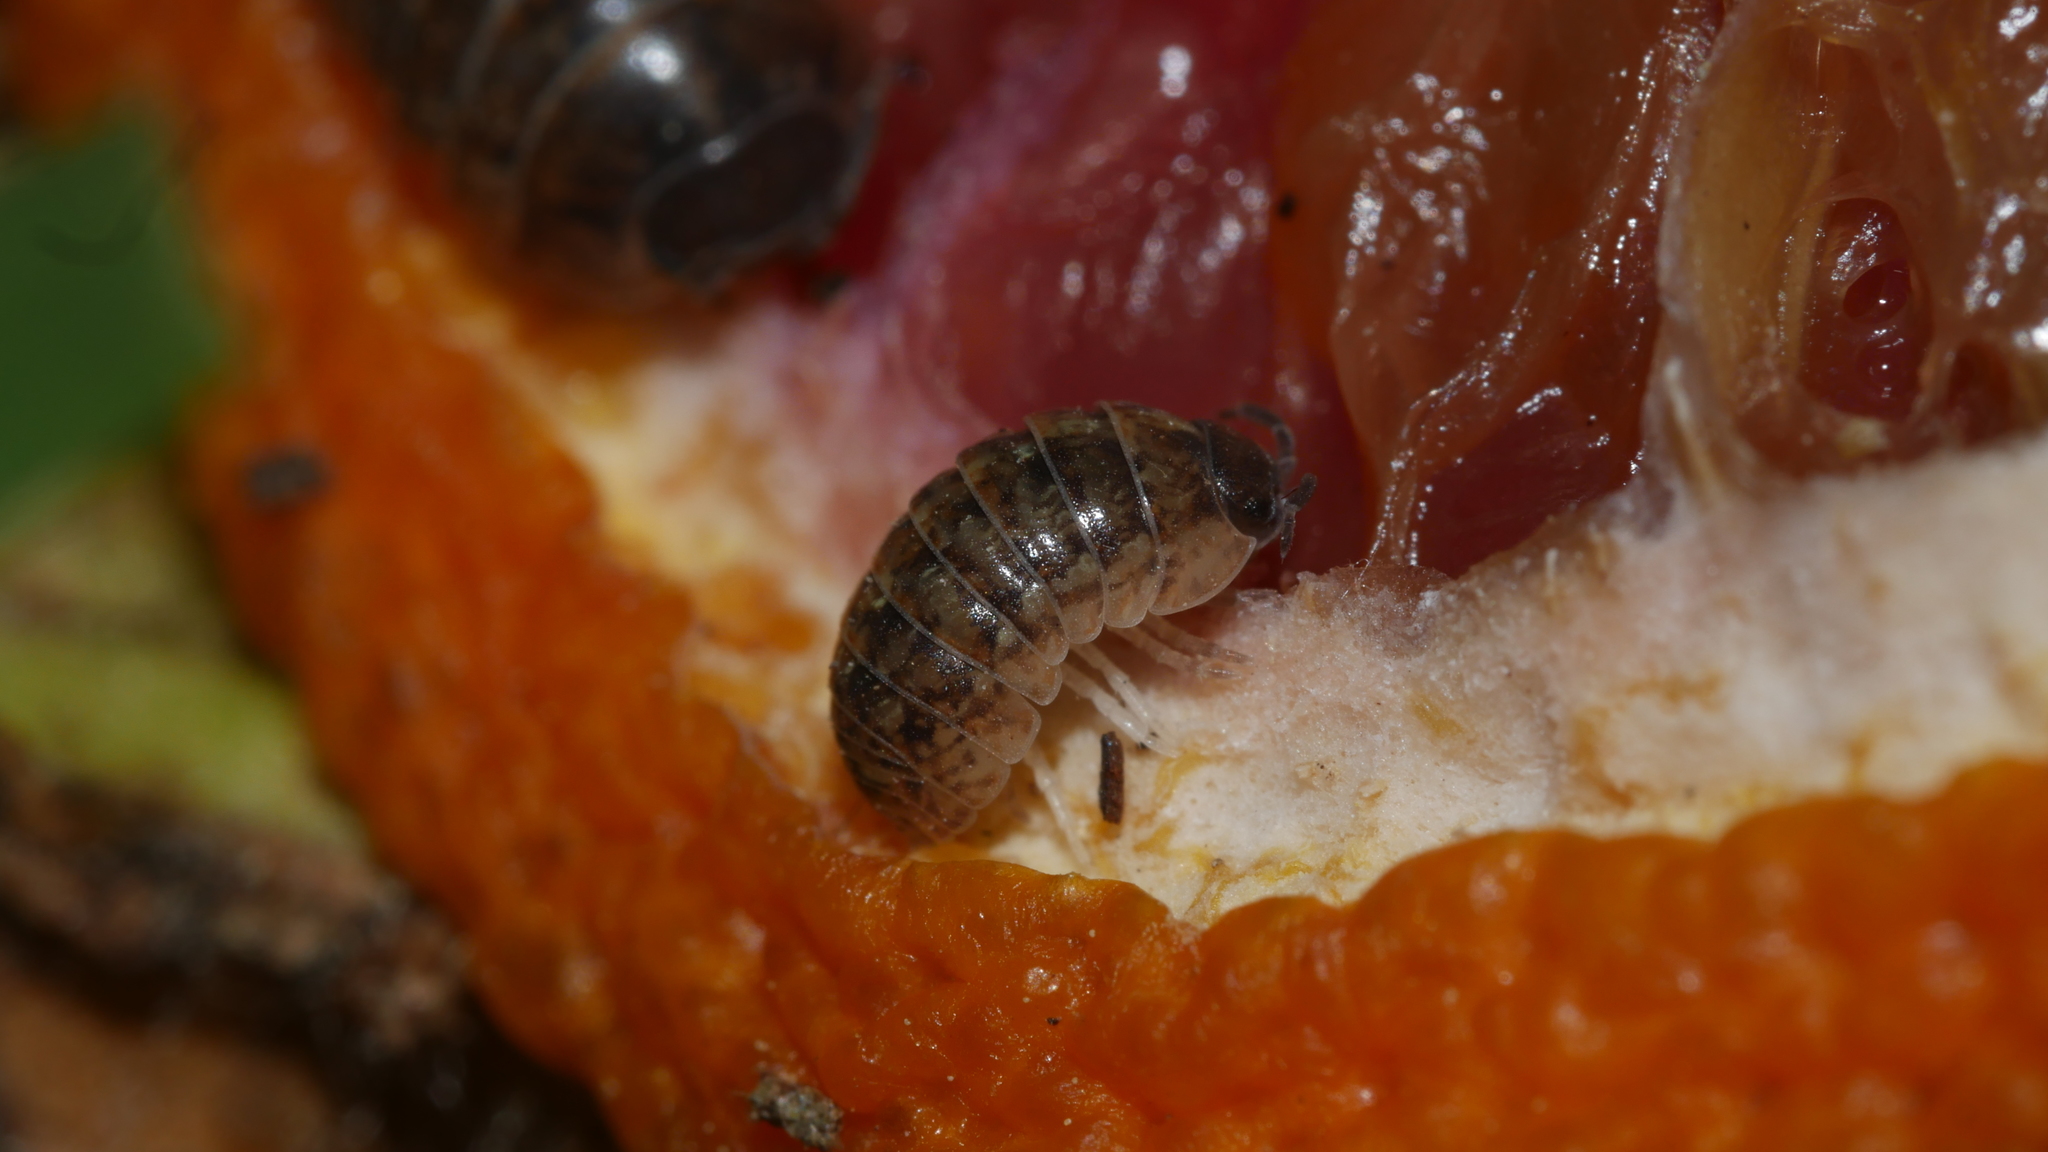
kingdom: Animalia
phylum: Arthropoda
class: Malacostraca
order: Isopoda
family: Armadillidiidae
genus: Armadillidium
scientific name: Armadillidium vulgare
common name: Common pill woodlouse
